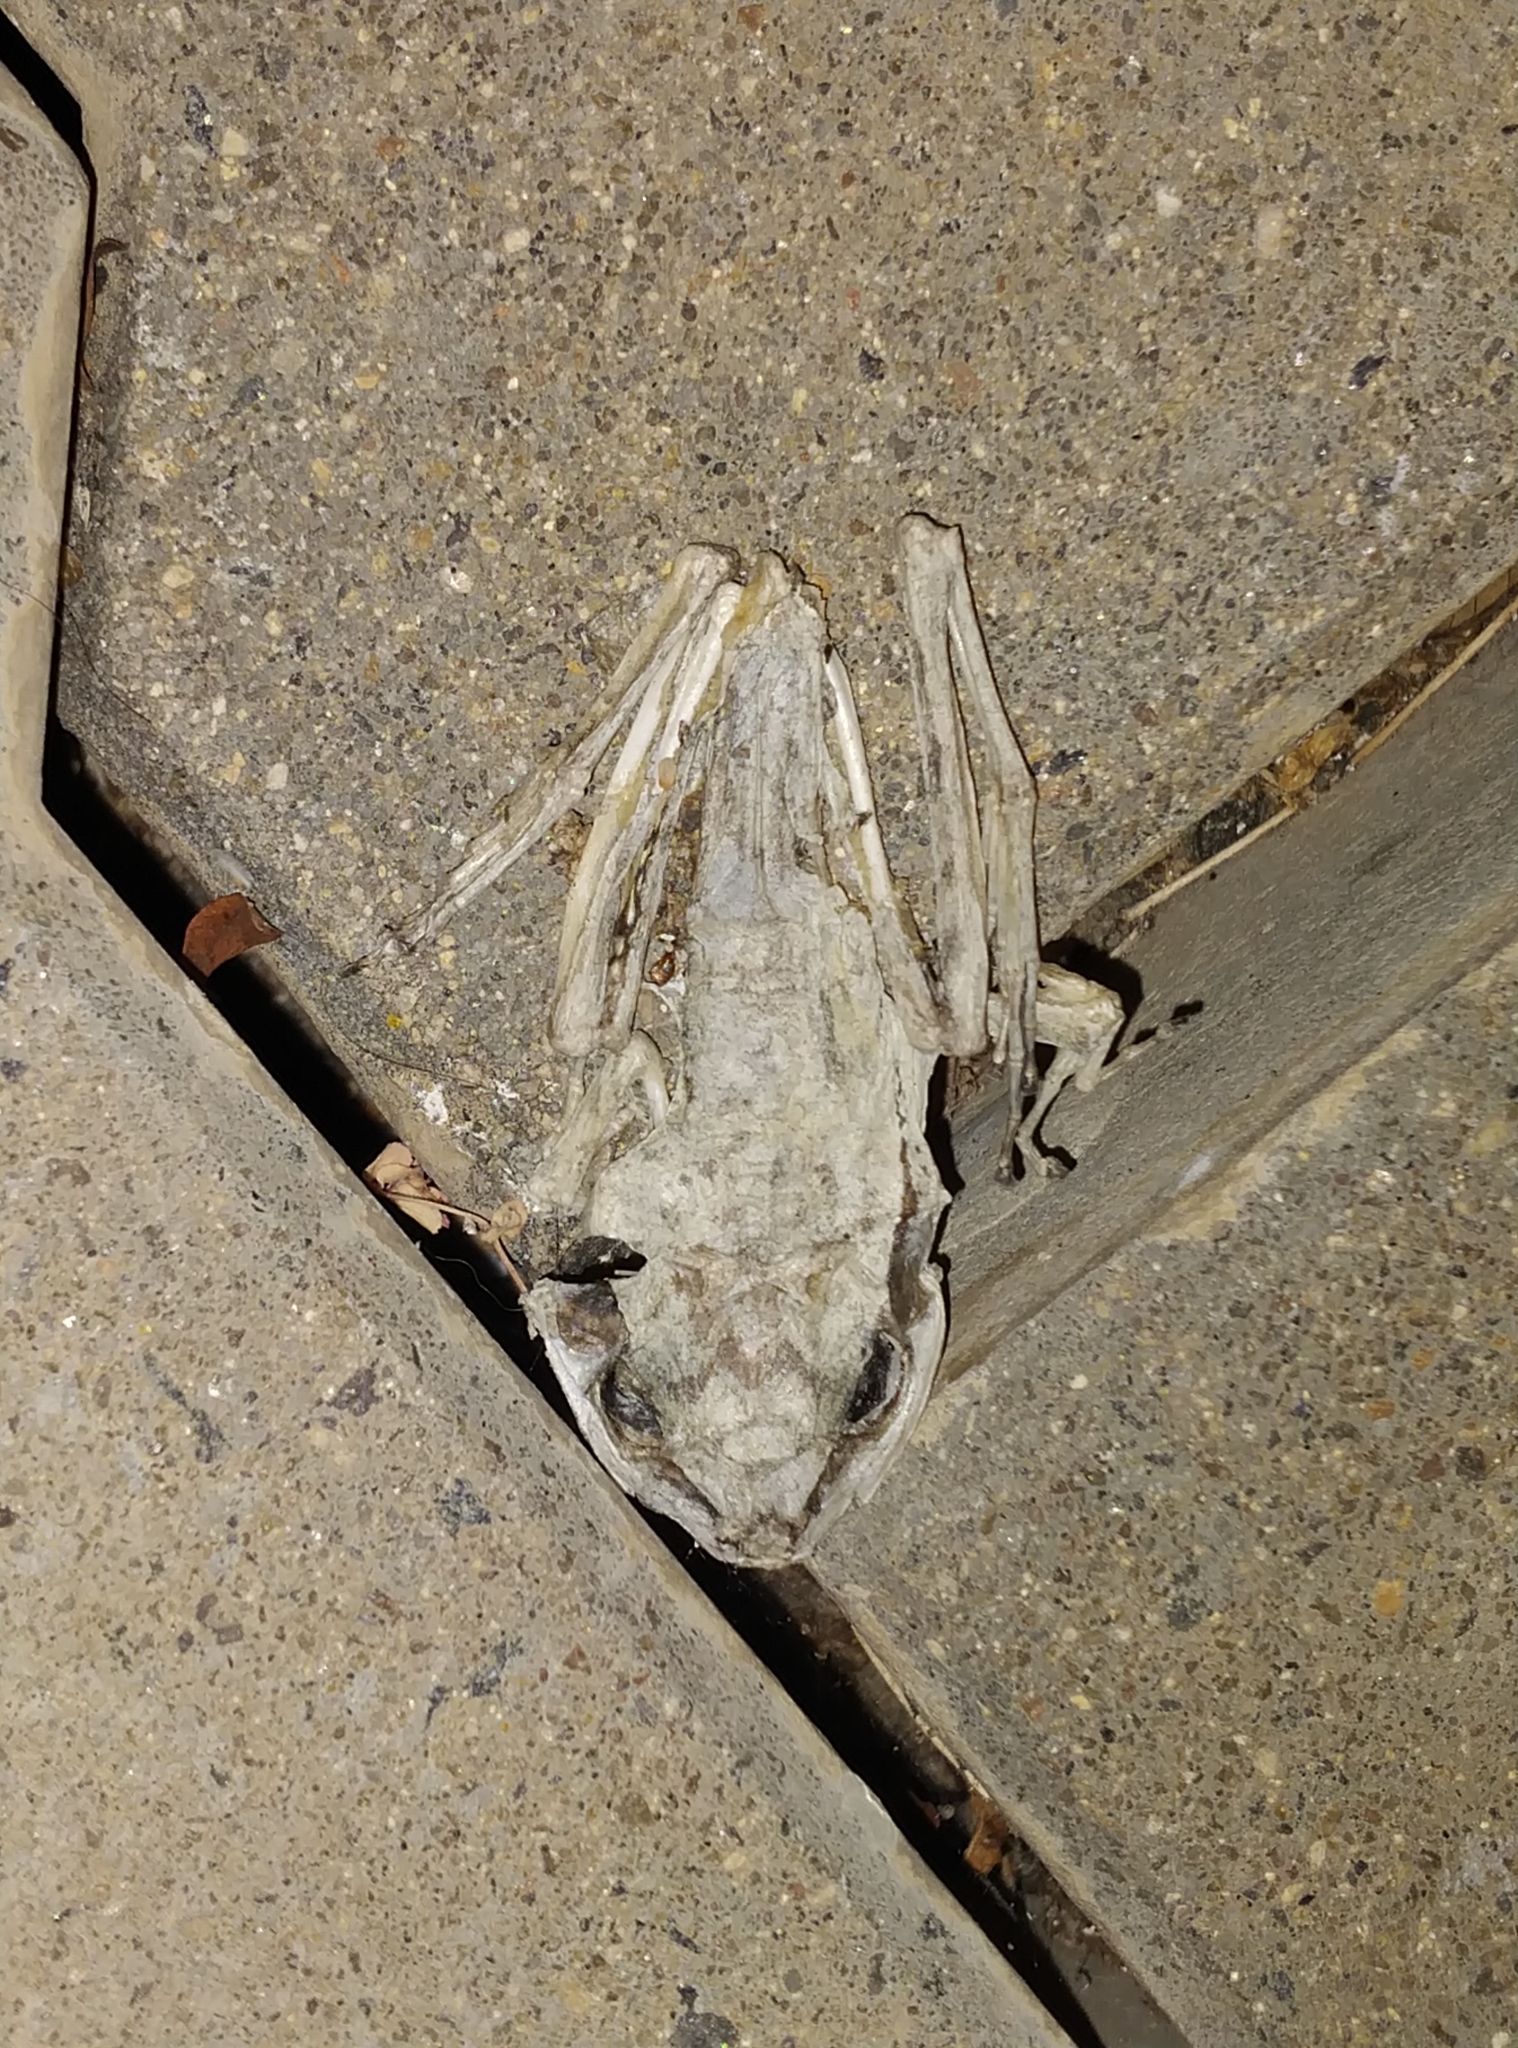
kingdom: Animalia
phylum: Chordata
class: Amphibia
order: Anura
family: Rhacophoridae
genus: Polypedates
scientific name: Polypedates maculatus
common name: Himalayan tree frog
